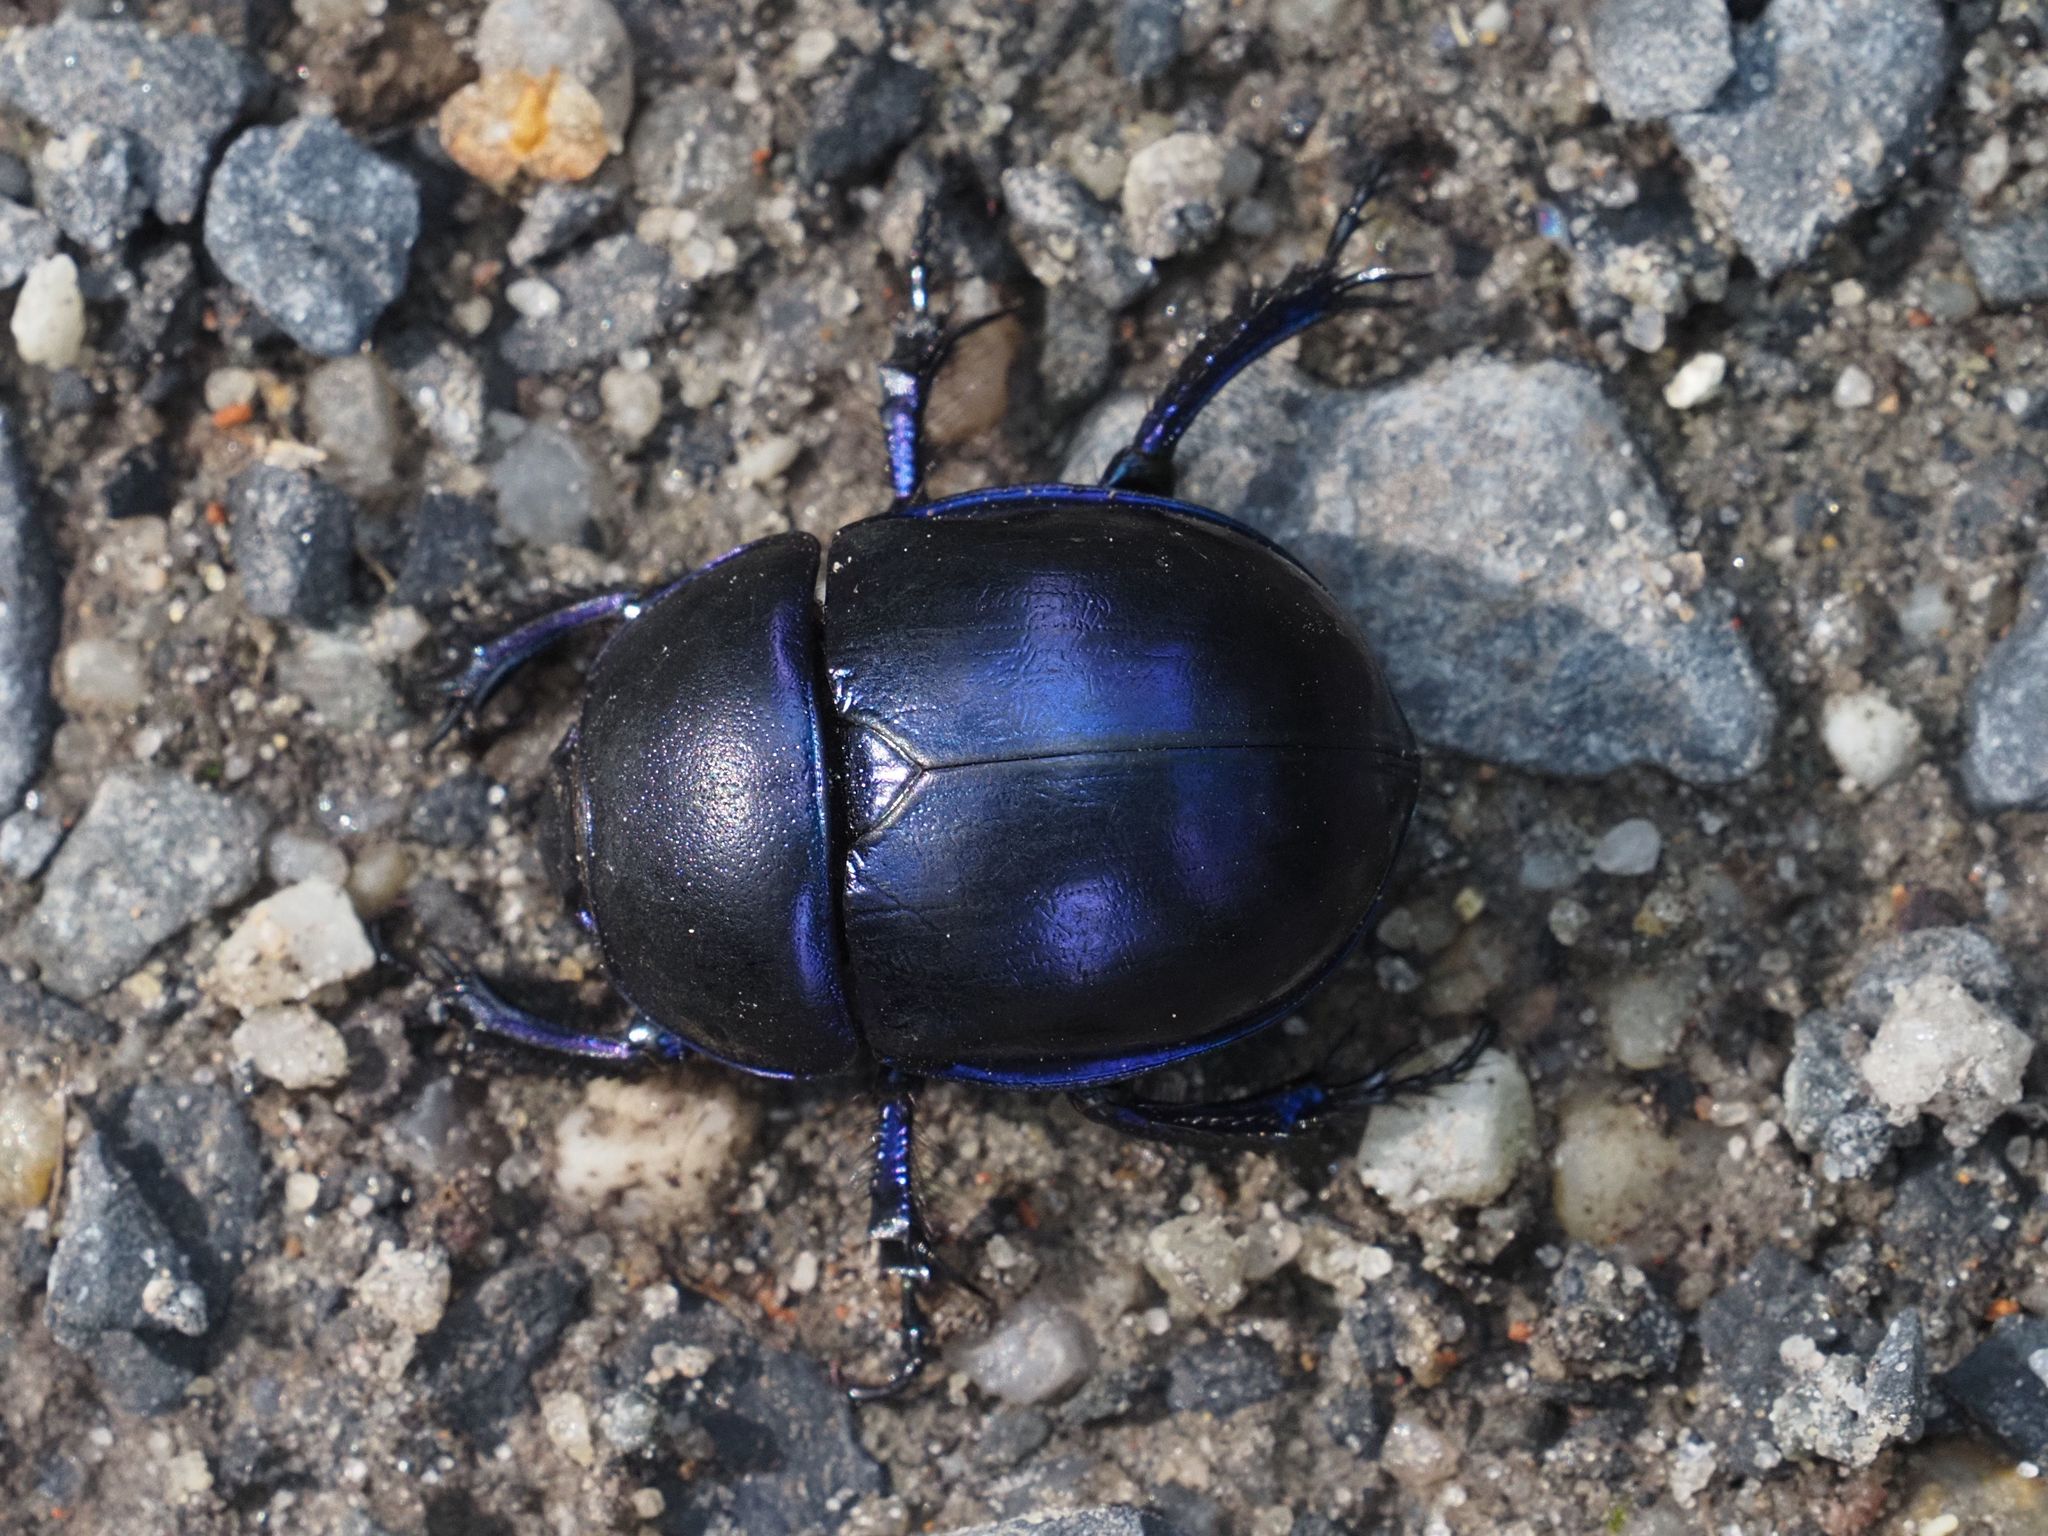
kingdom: Animalia
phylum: Arthropoda
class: Insecta
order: Coleoptera
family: Geotrupidae
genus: Trypocopris
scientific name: Trypocopris vernalis
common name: Spring dumbledor
